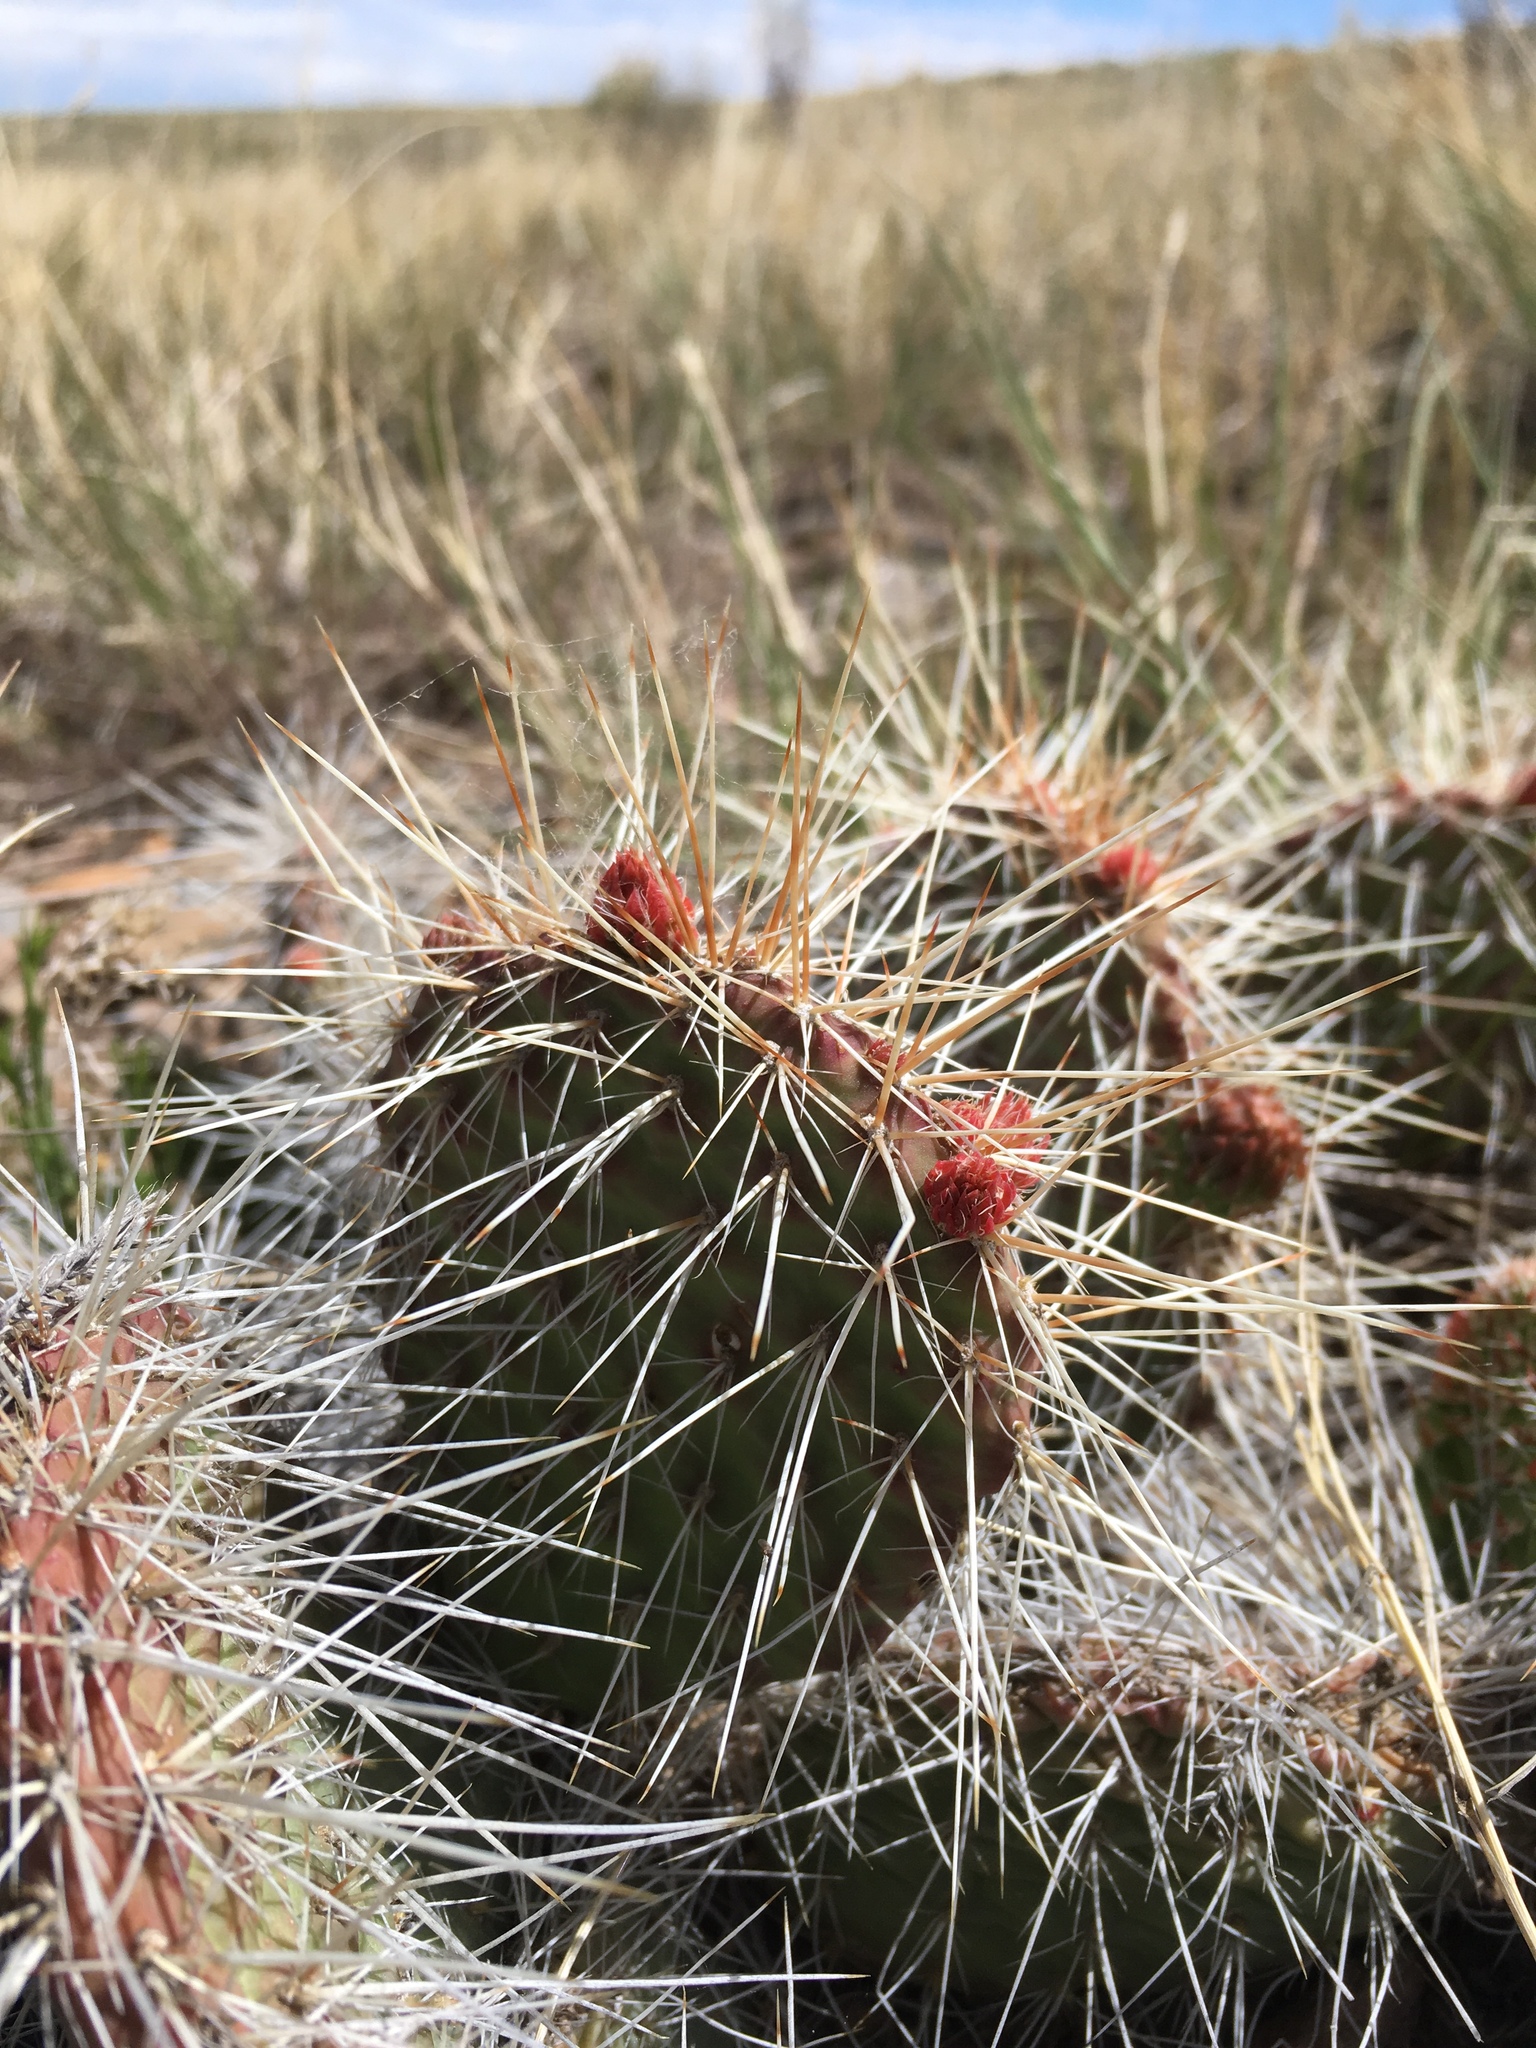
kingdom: Plantae
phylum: Tracheophyta
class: Magnoliopsida
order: Caryophyllales
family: Cactaceae
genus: Opuntia
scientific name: Opuntia polyacantha
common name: Plains prickly-pear
